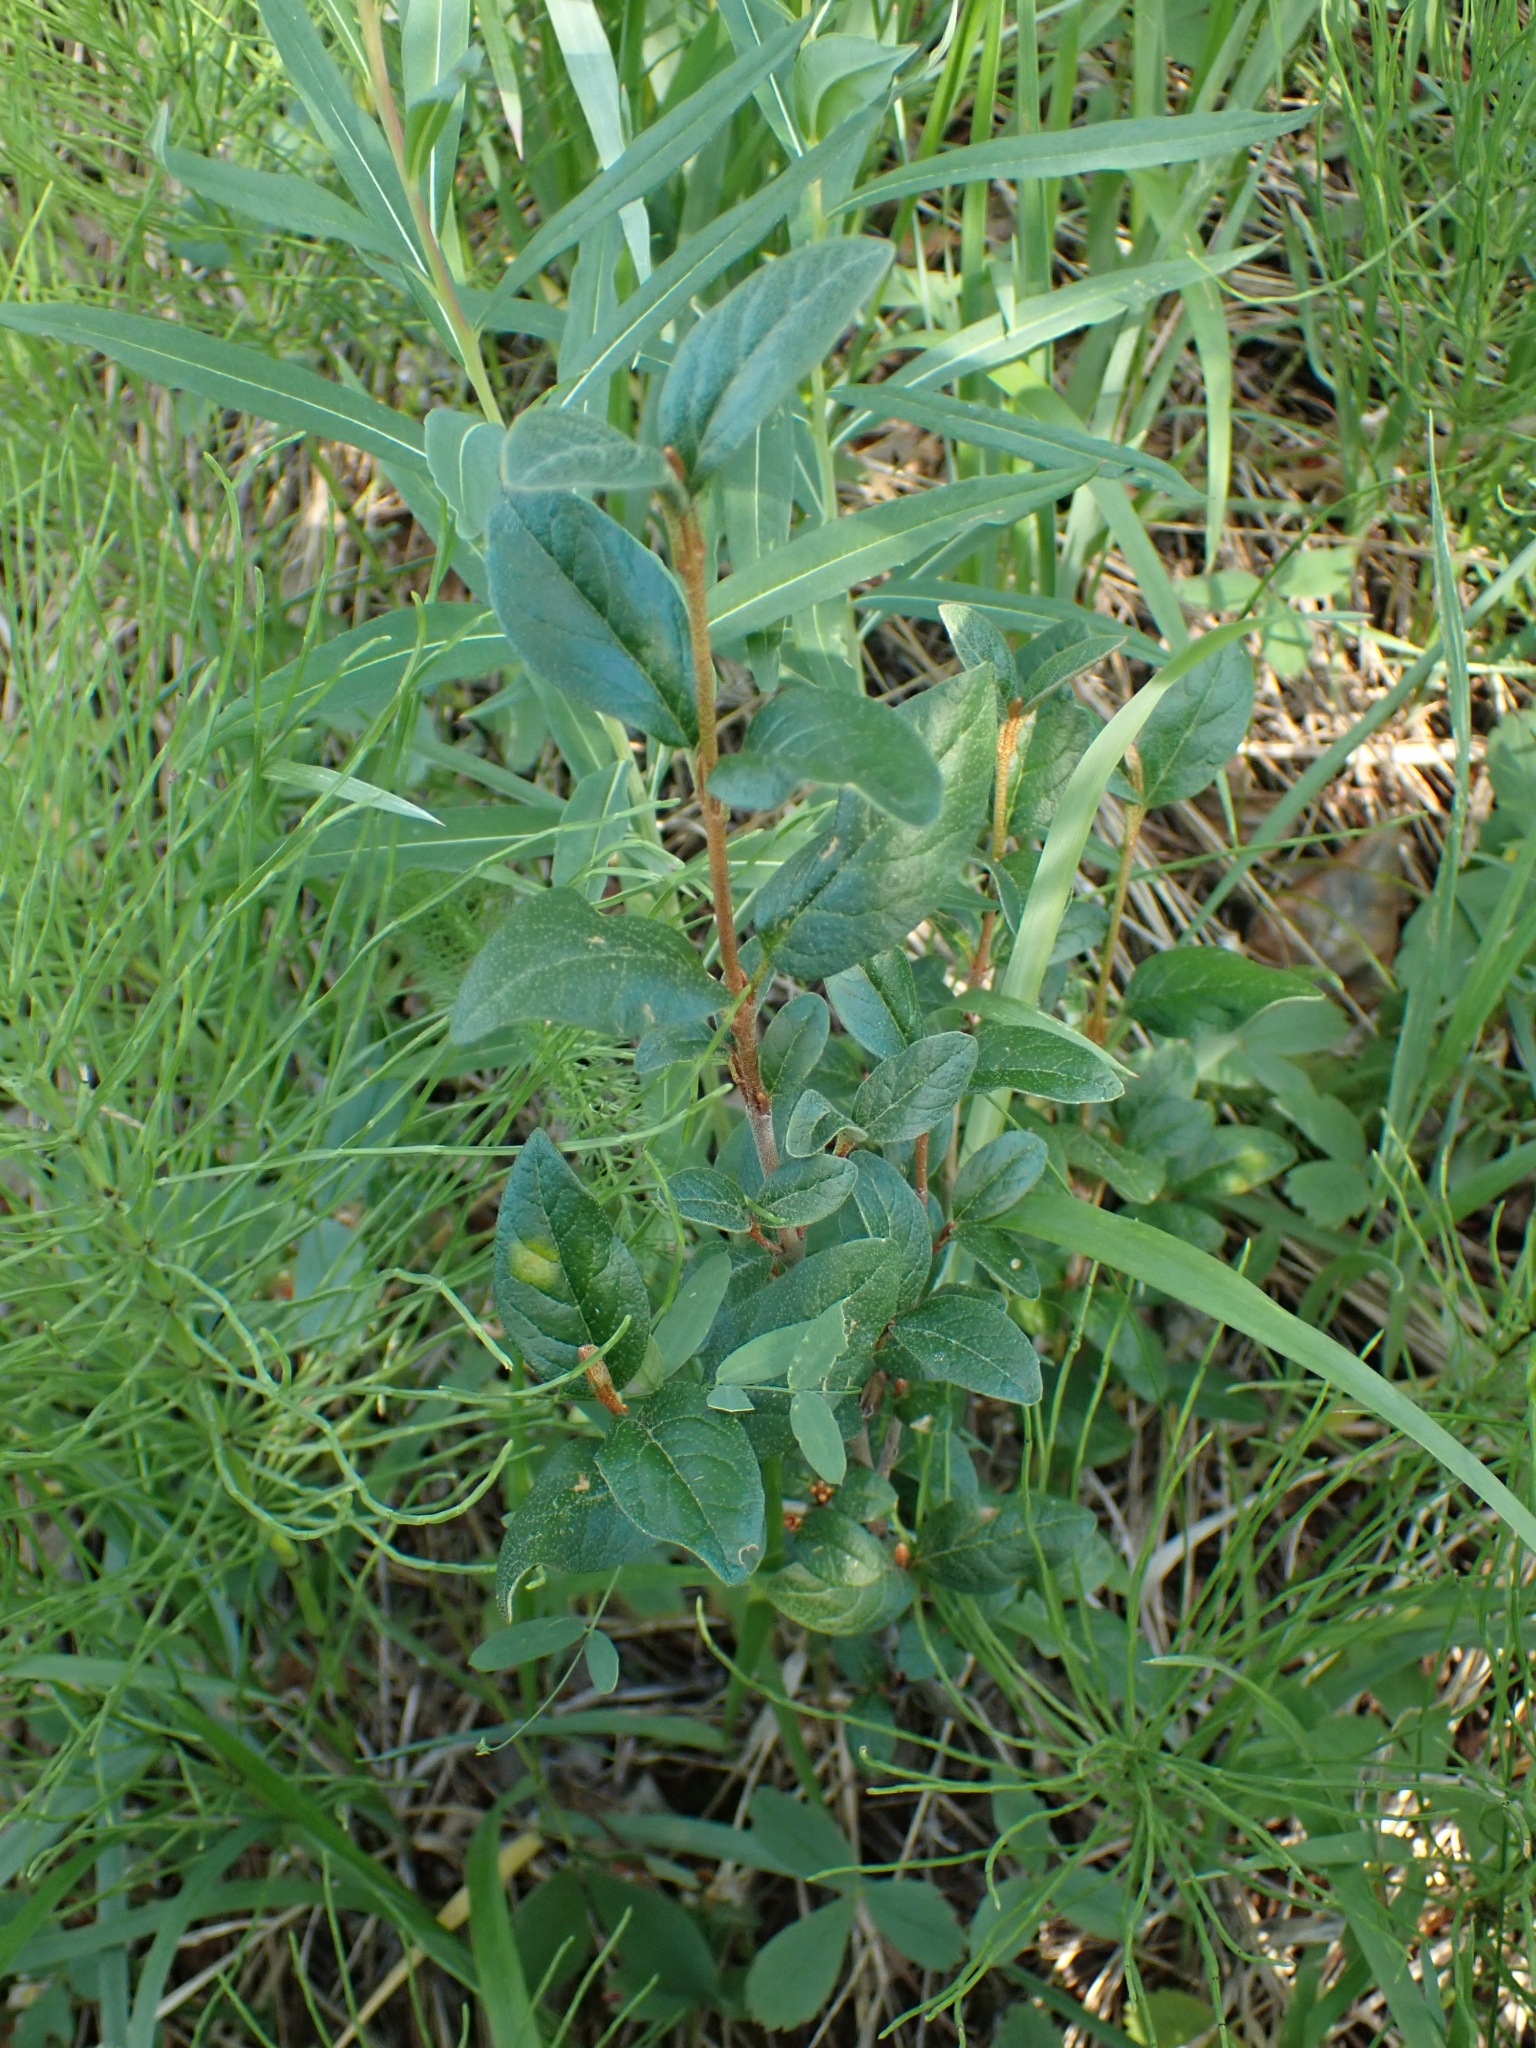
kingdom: Plantae
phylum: Tracheophyta
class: Magnoliopsida
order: Rosales
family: Elaeagnaceae
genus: Shepherdia
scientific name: Shepherdia canadensis
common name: Soapberry
